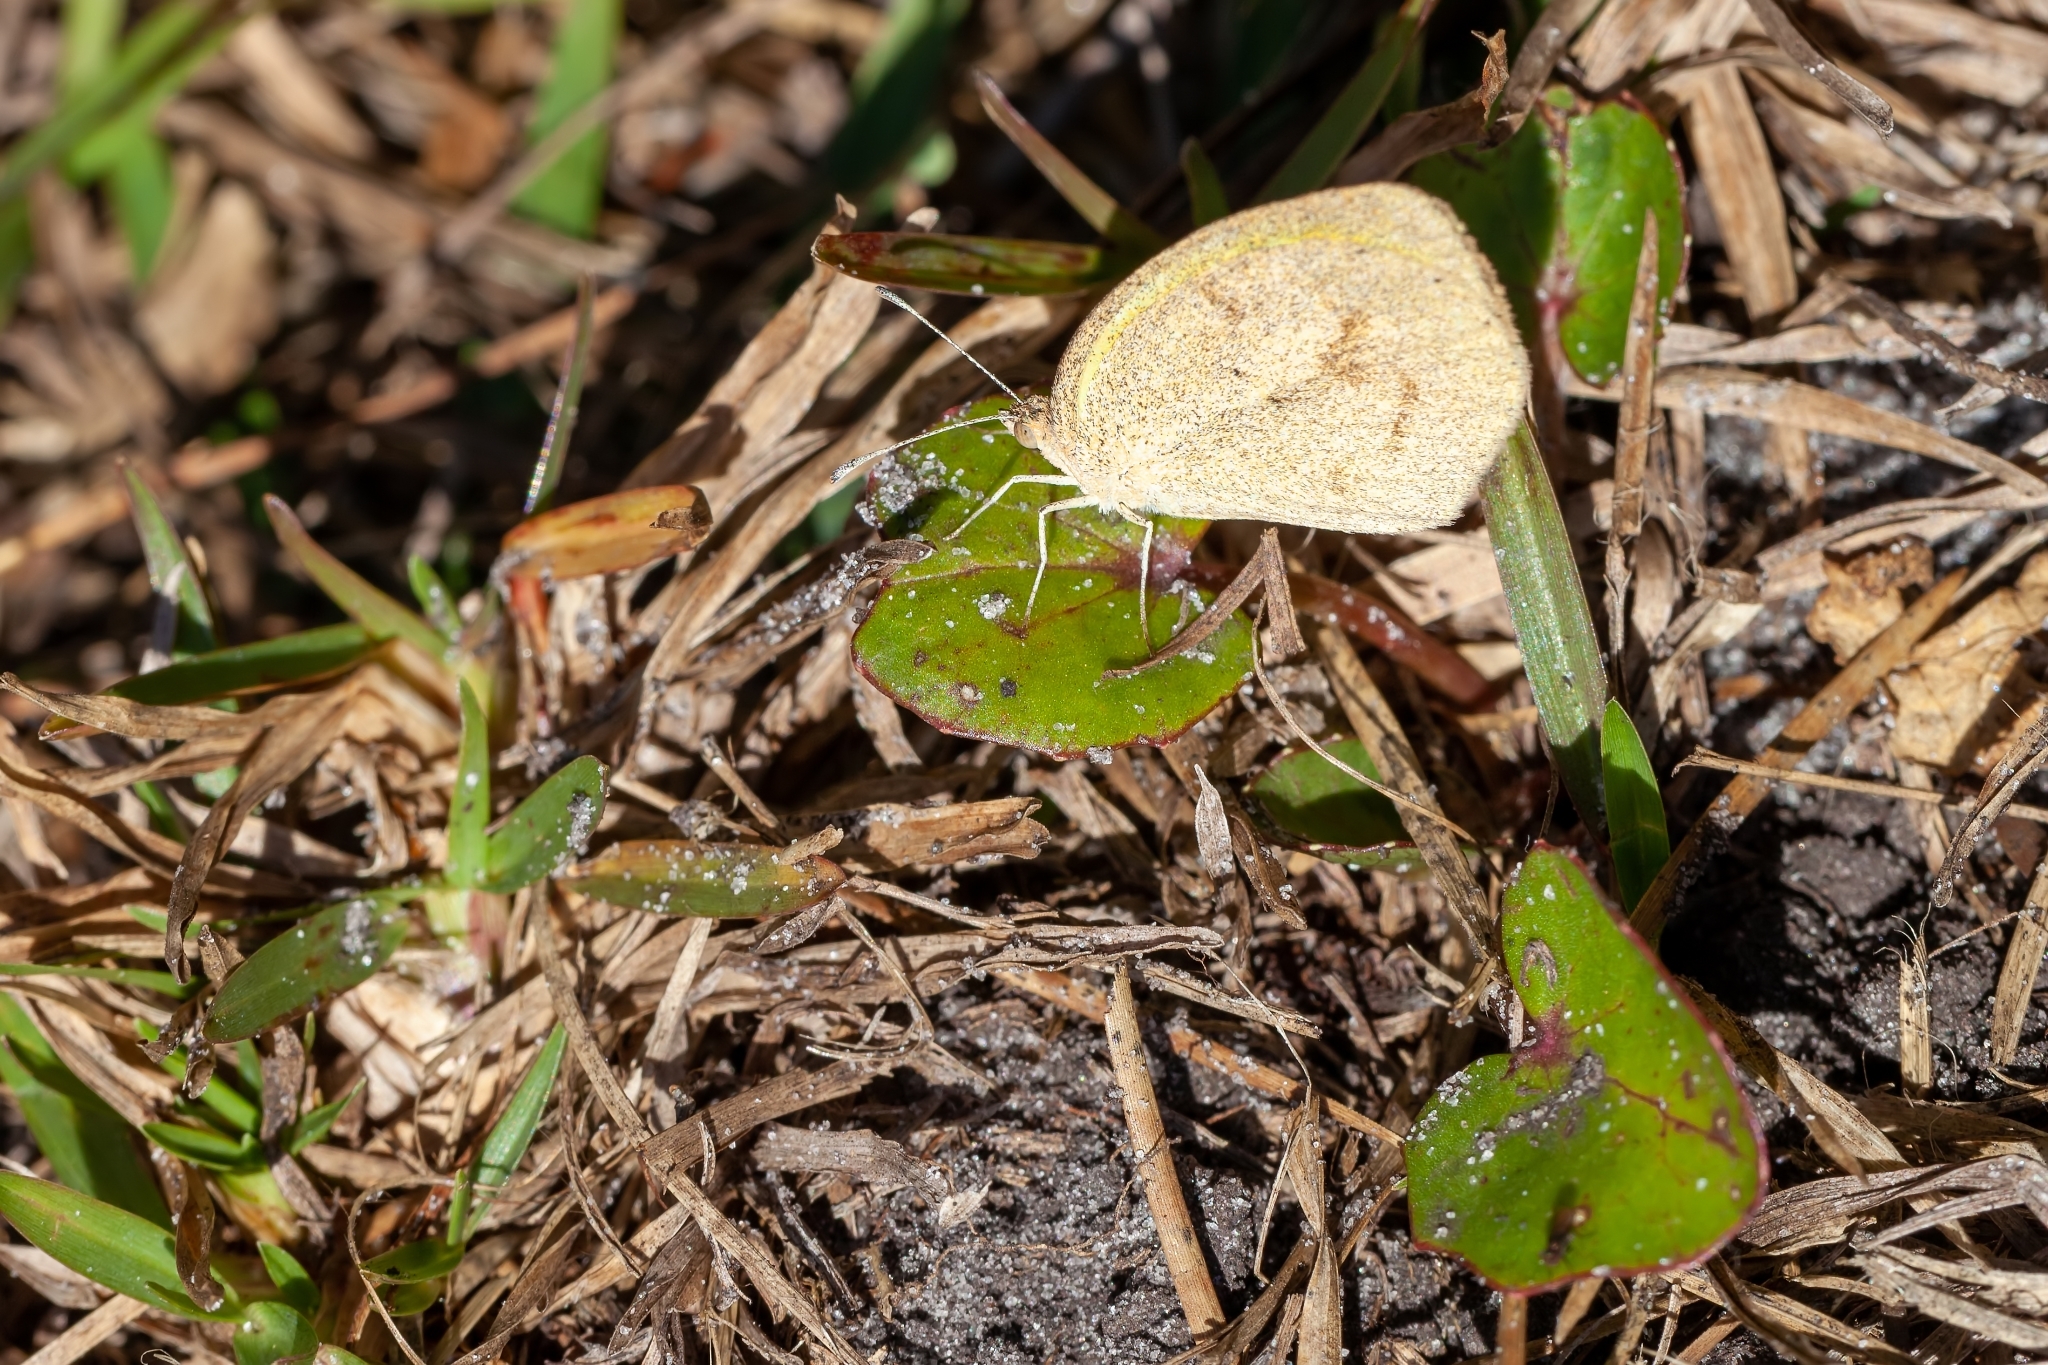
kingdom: Animalia
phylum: Arthropoda
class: Insecta
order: Lepidoptera
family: Pieridae
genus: Eurema
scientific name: Eurema daira
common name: Barred sulphur
